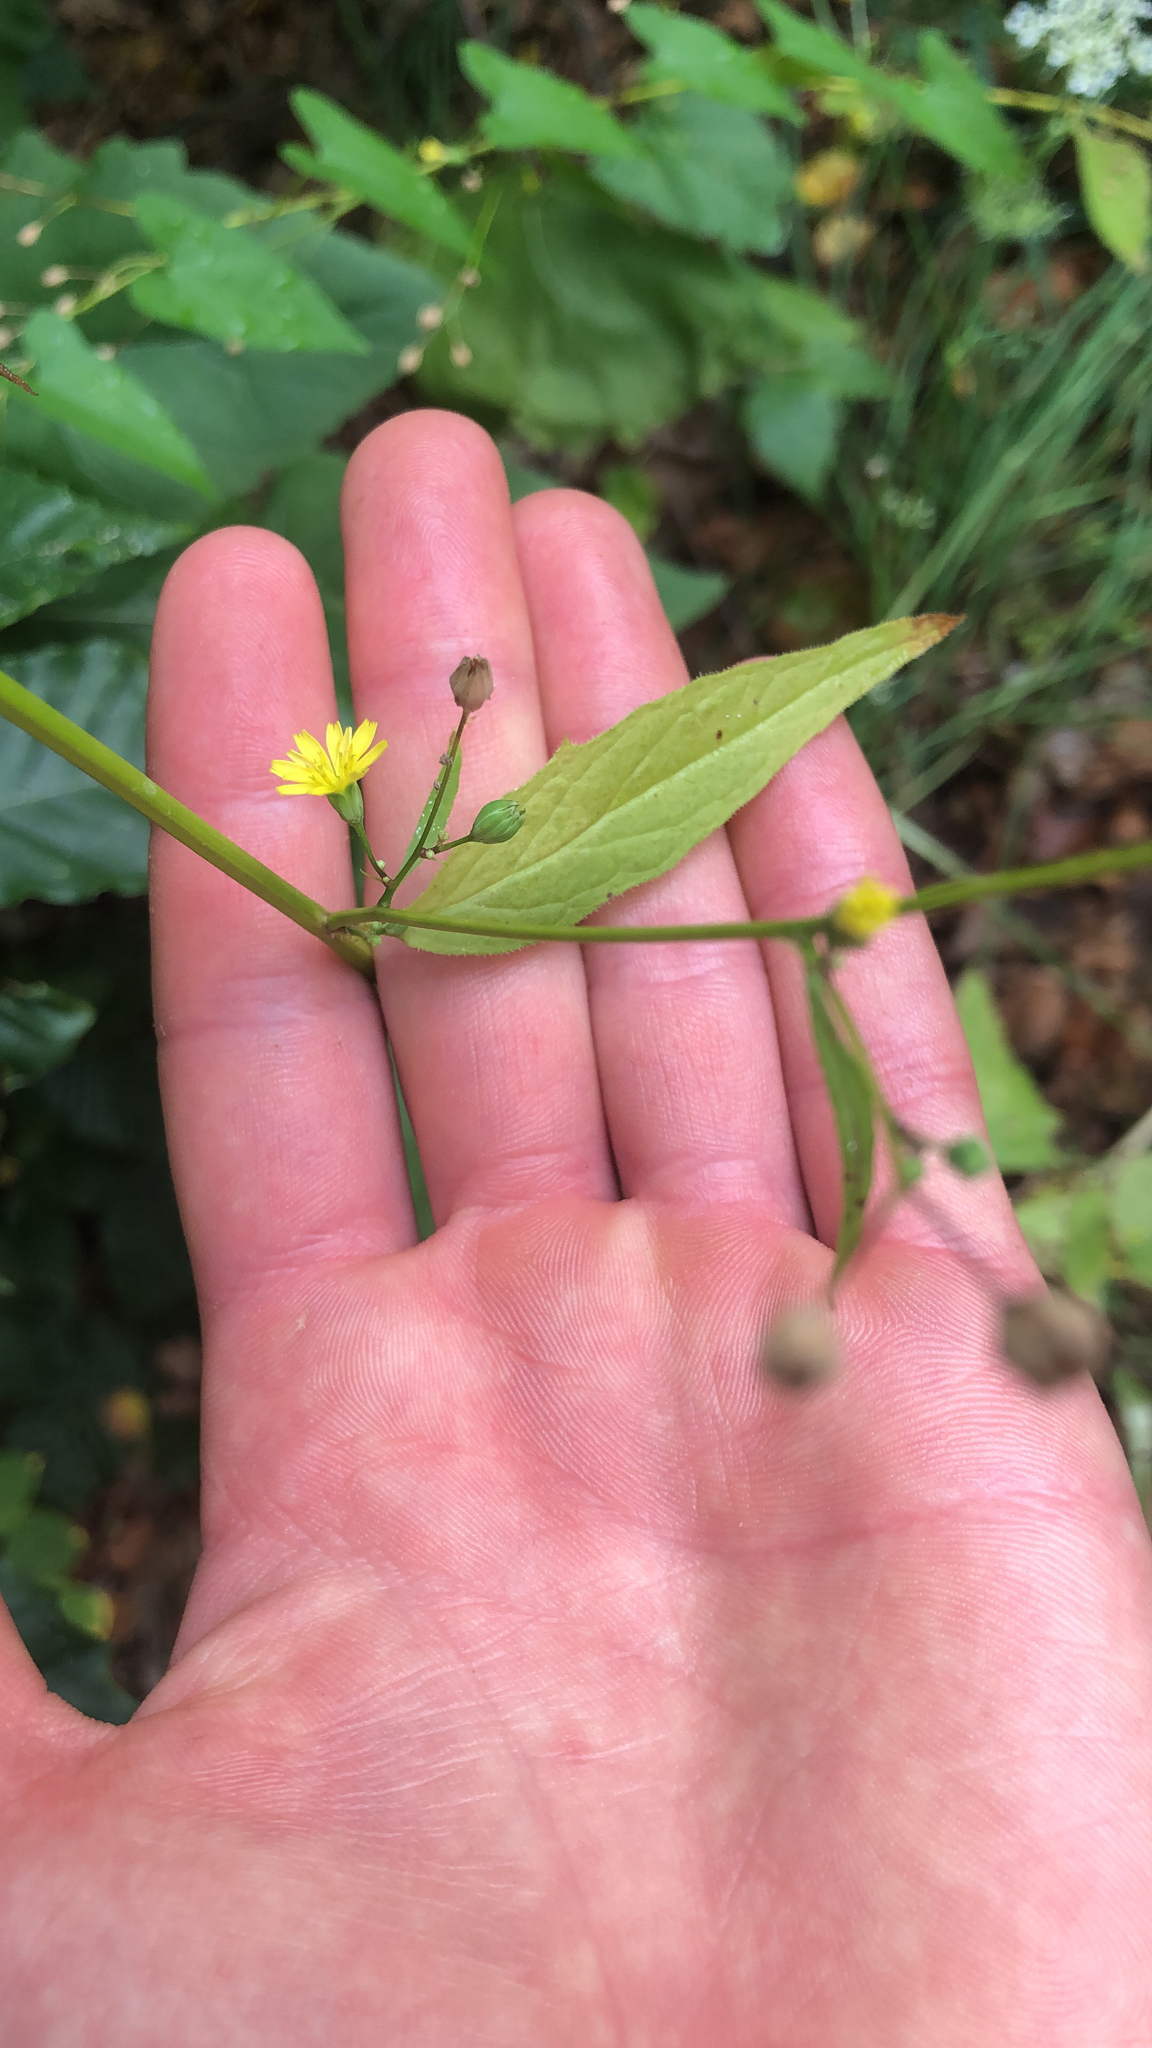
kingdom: Plantae
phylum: Tracheophyta
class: Magnoliopsida
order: Asterales
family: Asteraceae
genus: Lapsana
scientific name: Lapsana communis
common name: Nipplewort
